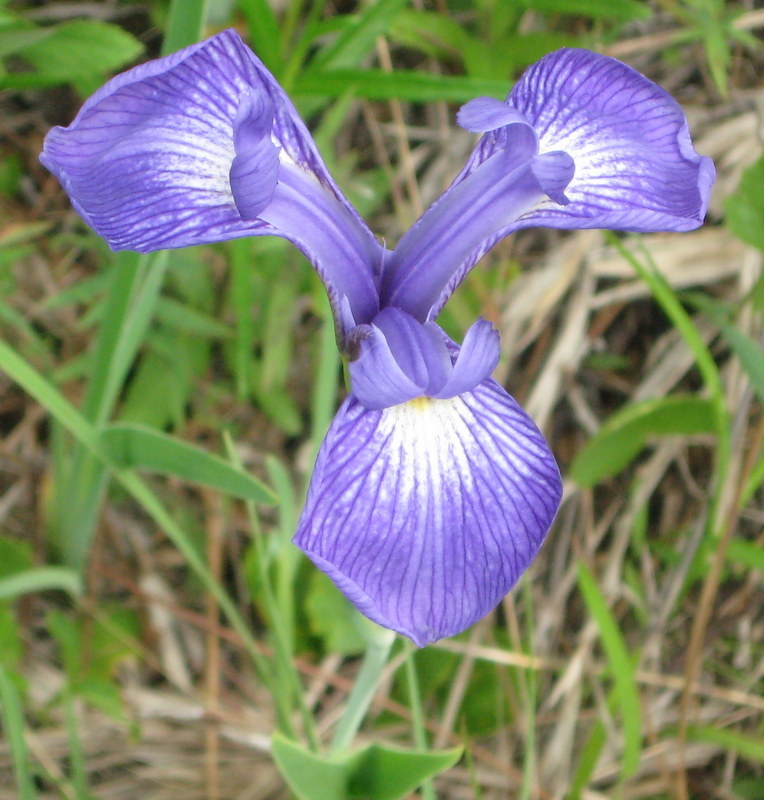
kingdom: Plantae
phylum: Tracheophyta
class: Liliopsida
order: Asparagales
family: Iridaceae
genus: Iris
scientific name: Iris tridentata
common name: Savannah iris
